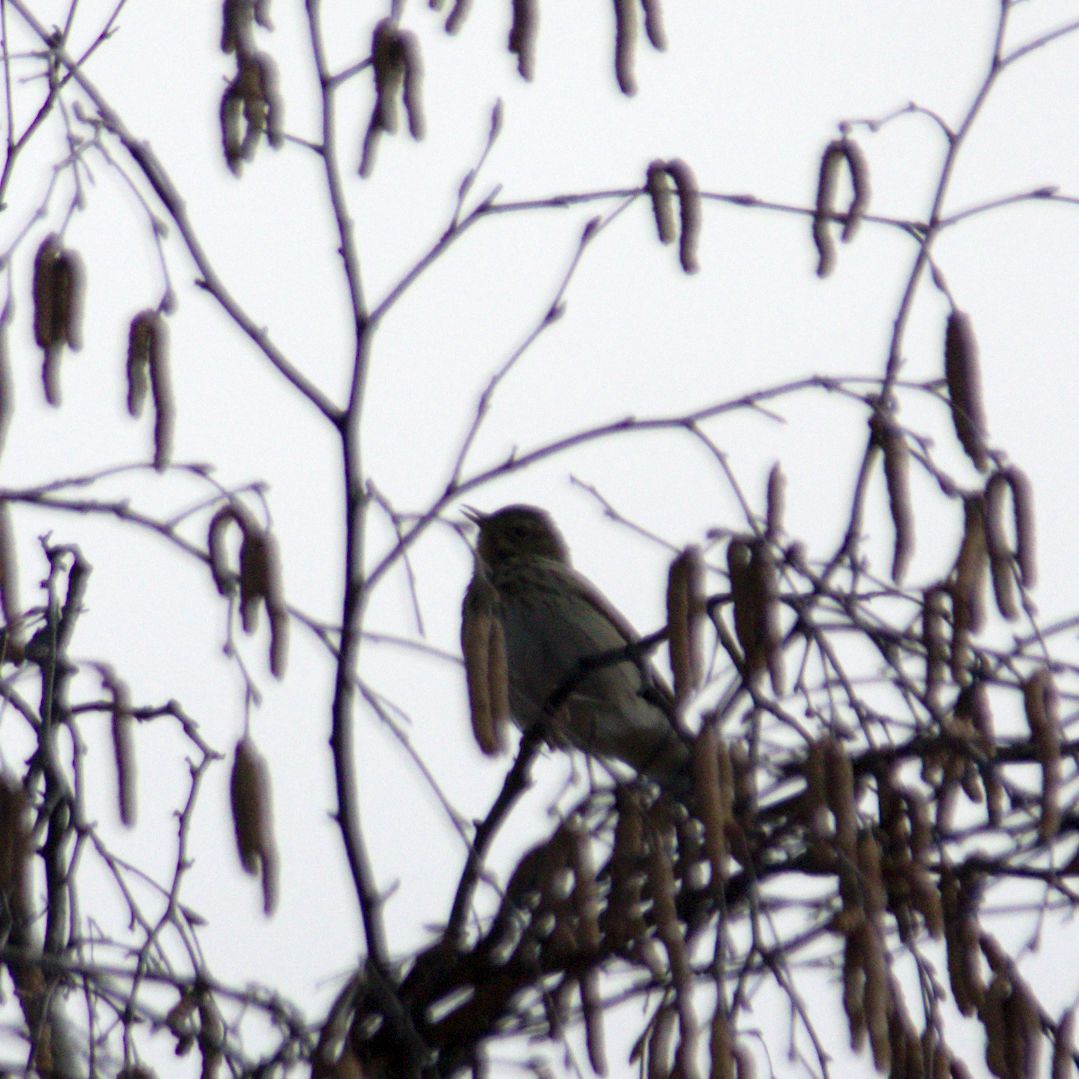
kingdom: Animalia
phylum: Chordata
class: Aves
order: Passeriformes
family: Motacillidae
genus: Anthus
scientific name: Anthus trivialis
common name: Tree pipit
